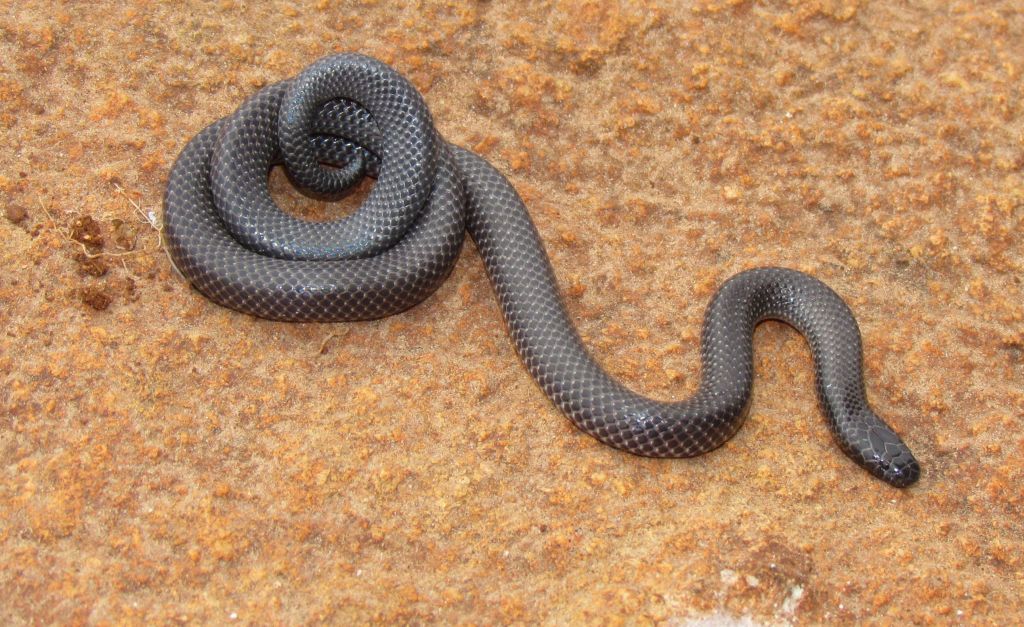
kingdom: Animalia
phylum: Chordata
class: Squamata
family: Atractaspididae
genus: Micrelaps
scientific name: Micrelaps vaillanti
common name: Black-headed micrelaps
